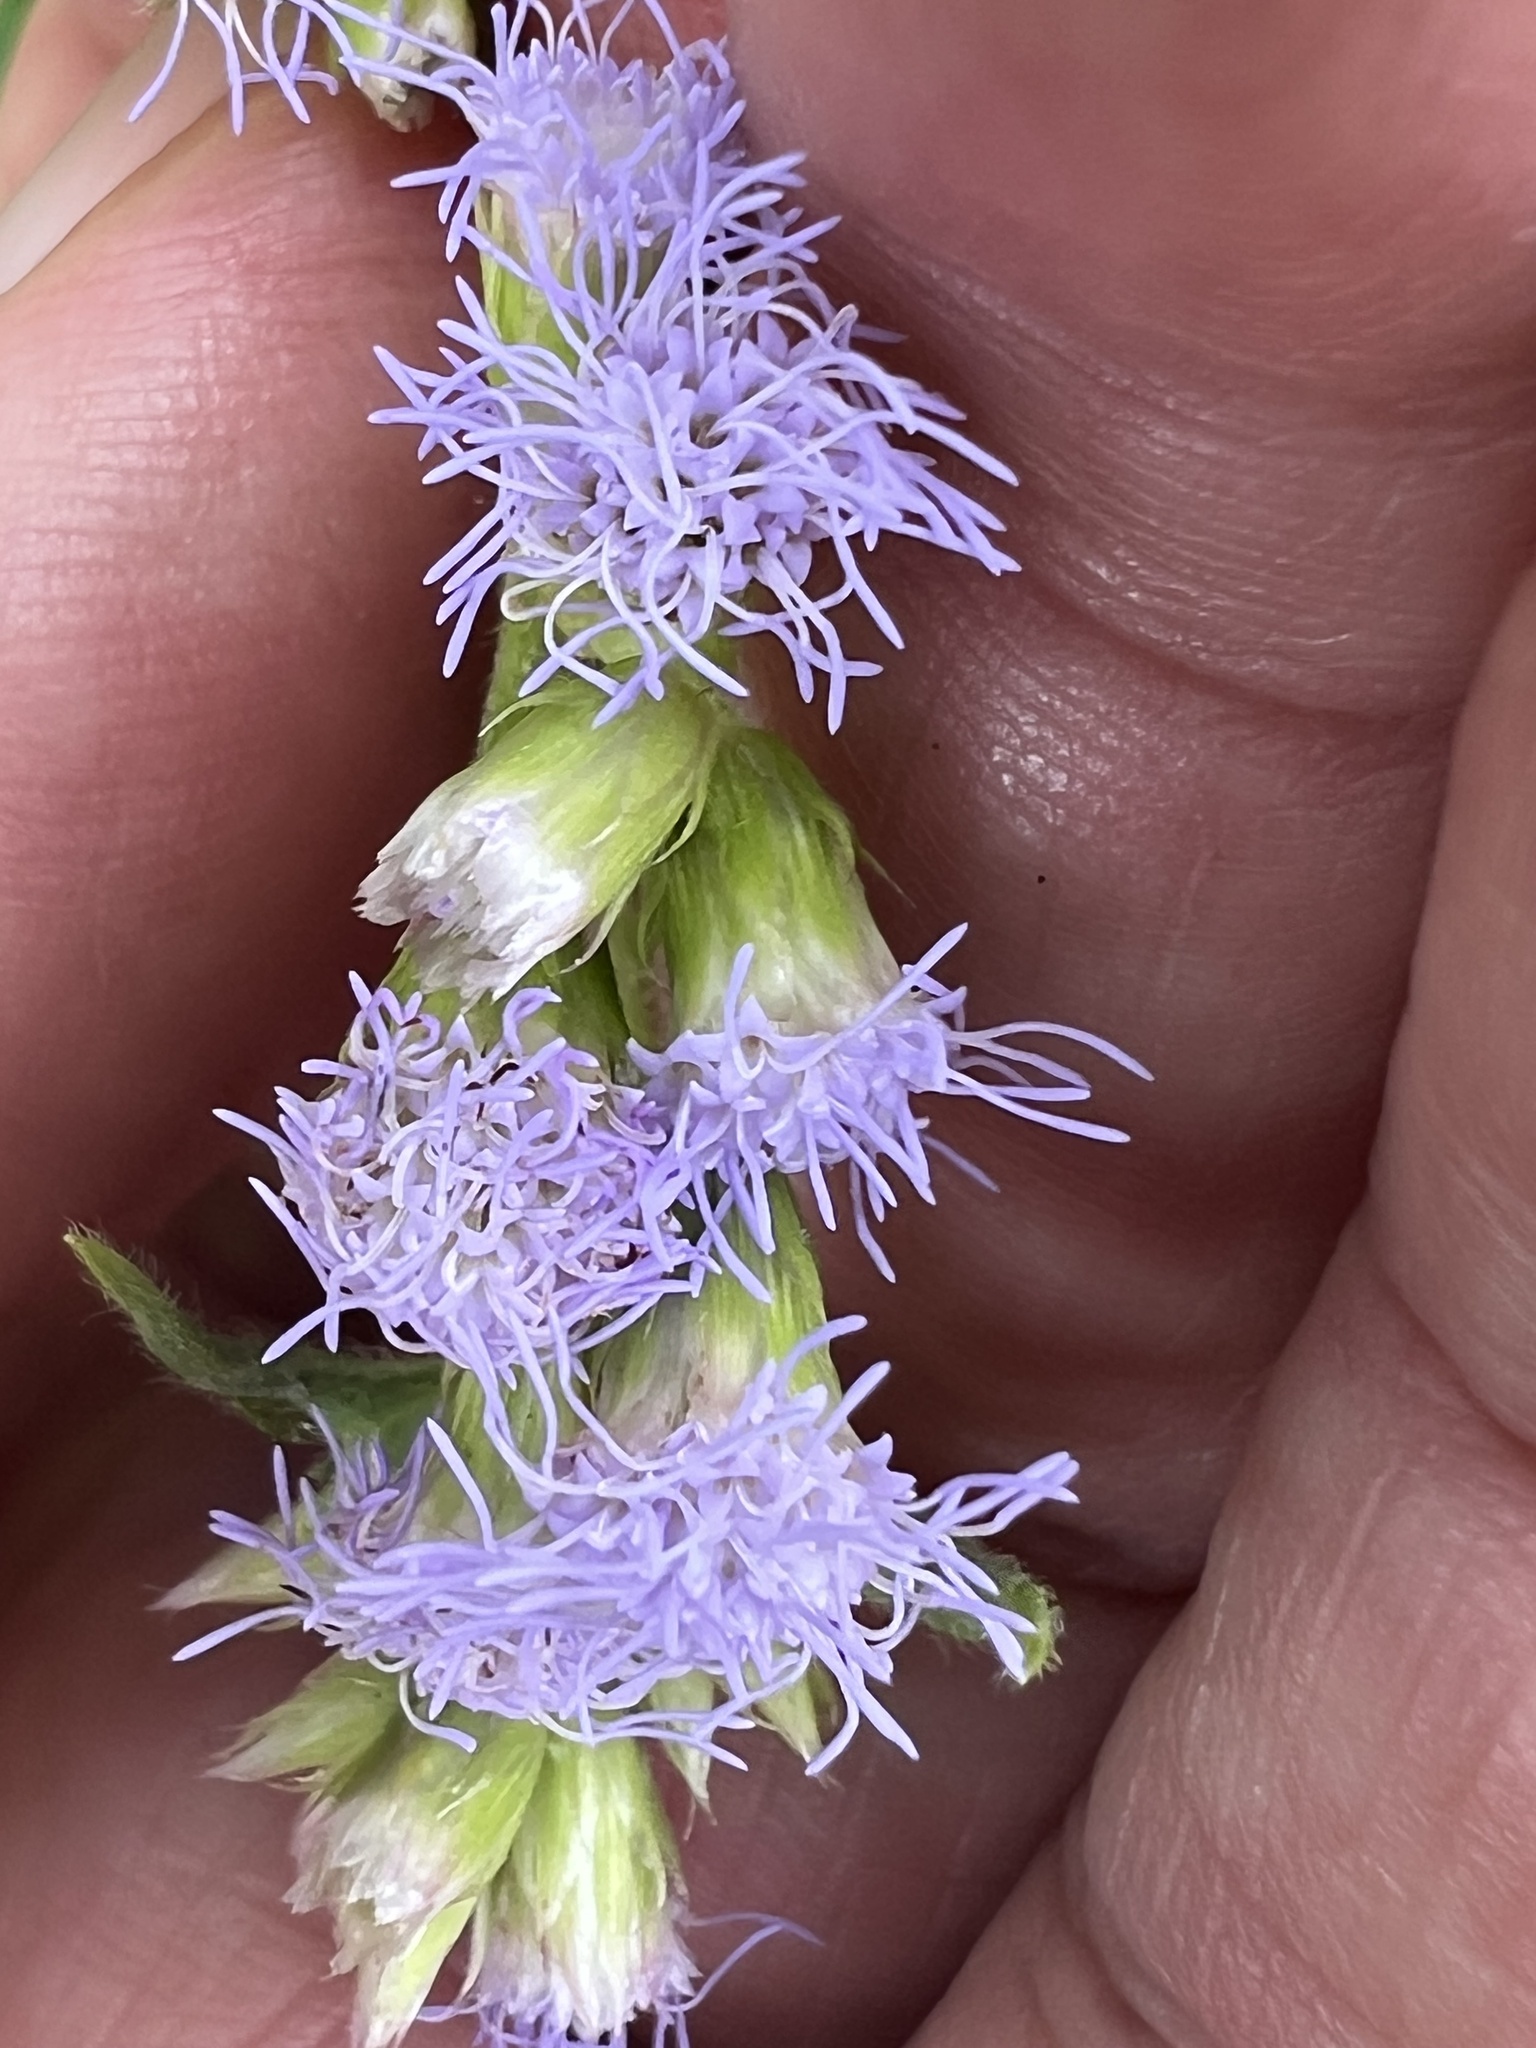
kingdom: Plantae
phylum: Tracheophyta
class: Magnoliopsida
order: Asterales
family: Asteraceae
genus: Praxelis
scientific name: Praxelis clematidea
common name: Praxelis
